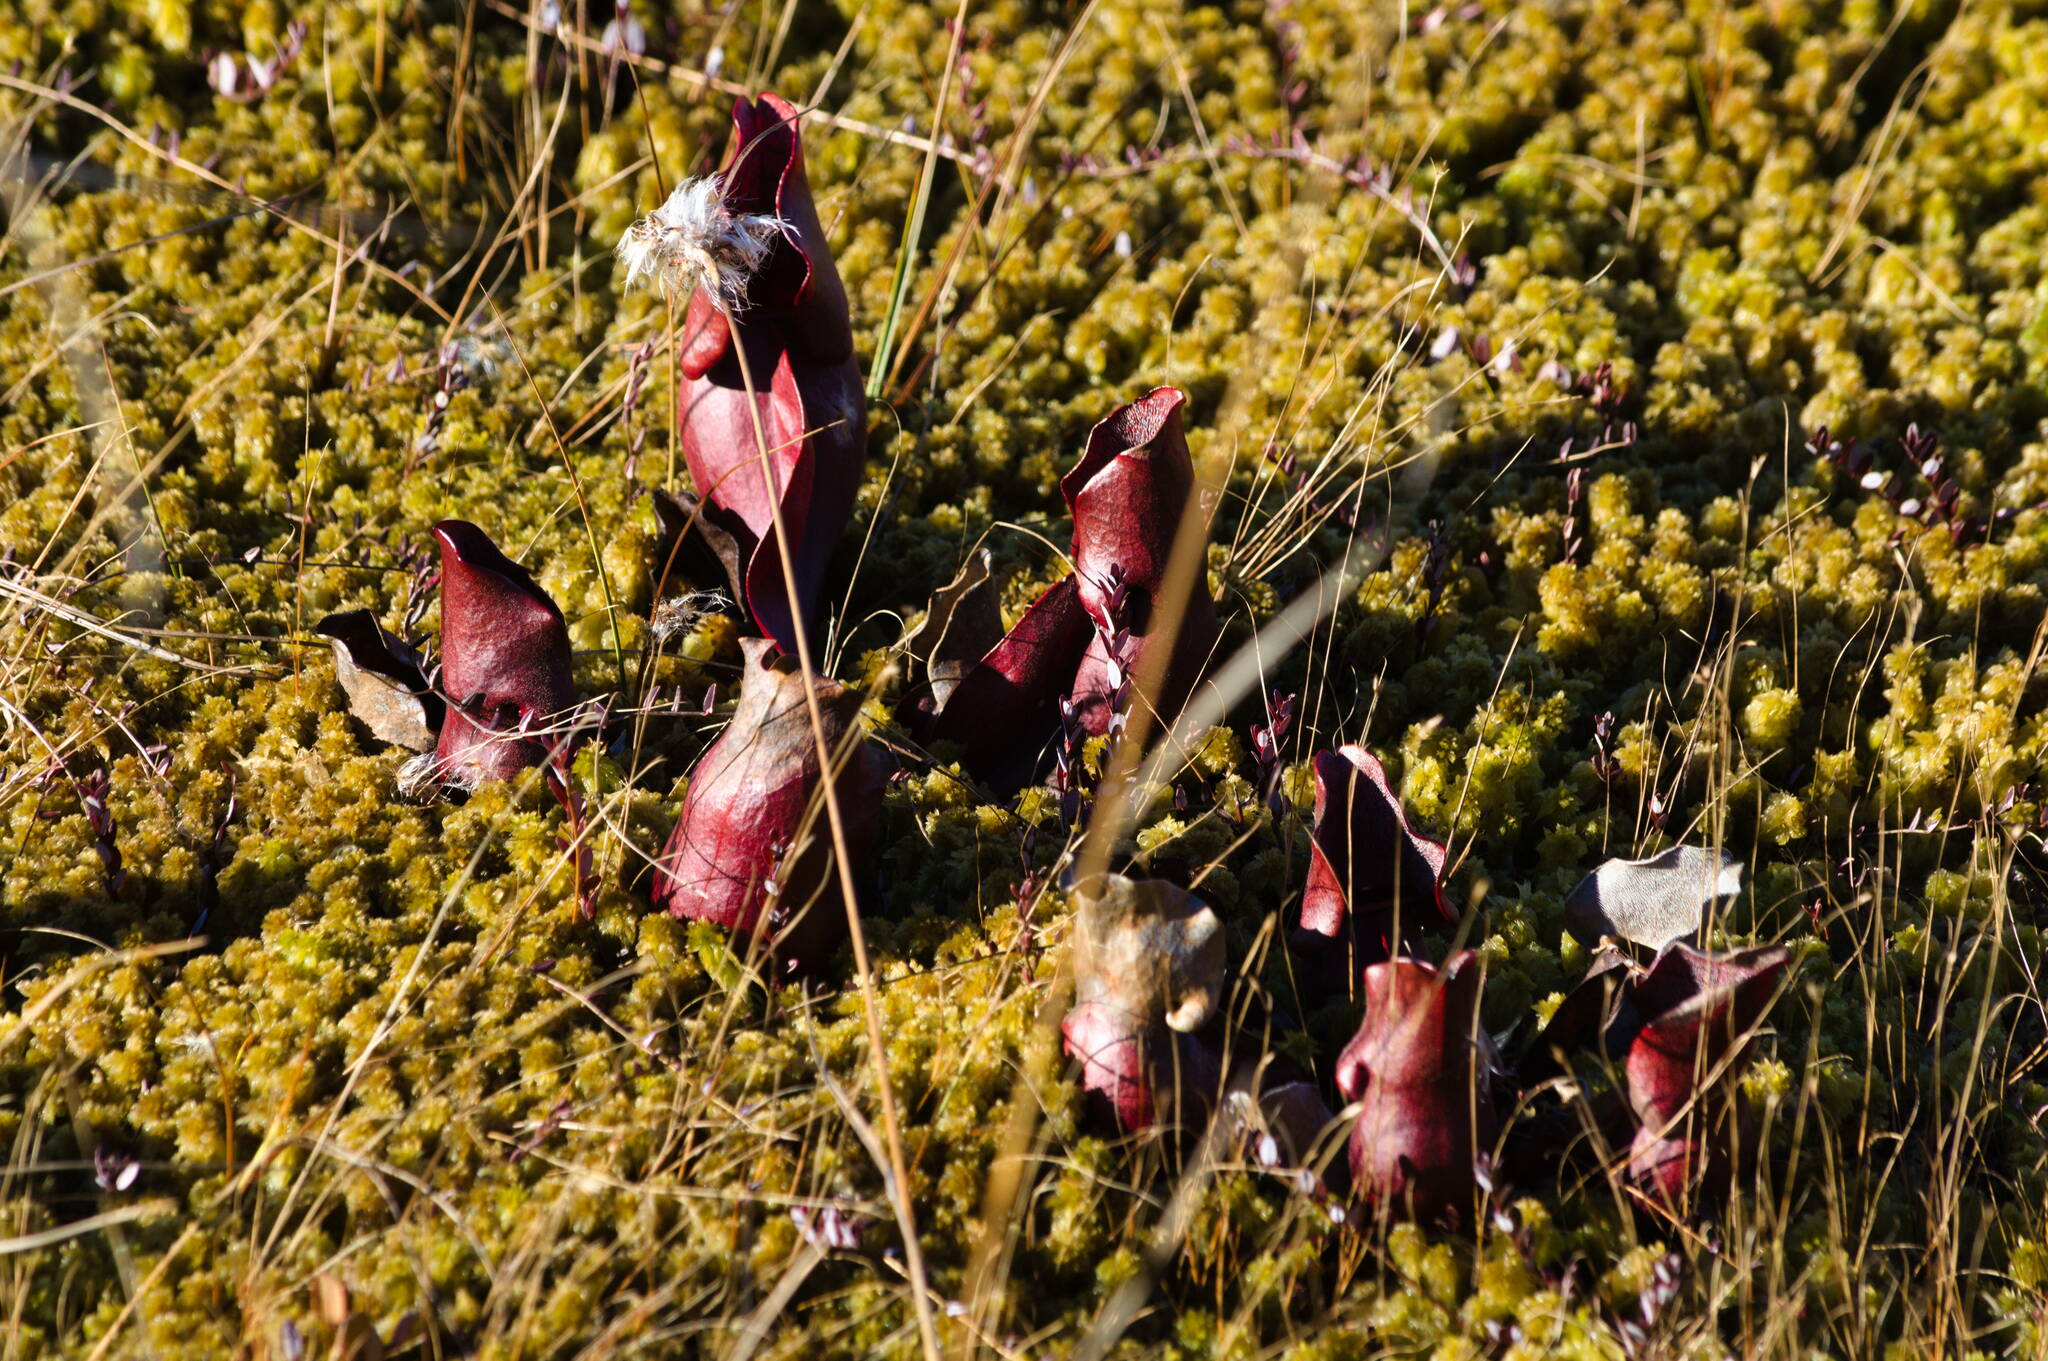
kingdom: Plantae
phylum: Tracheophyta
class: Magnoliopsida
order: Ericales
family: Sarraceniaceae
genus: Sarracenia
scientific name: Sarracenia purpurea
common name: Pitcherplant
